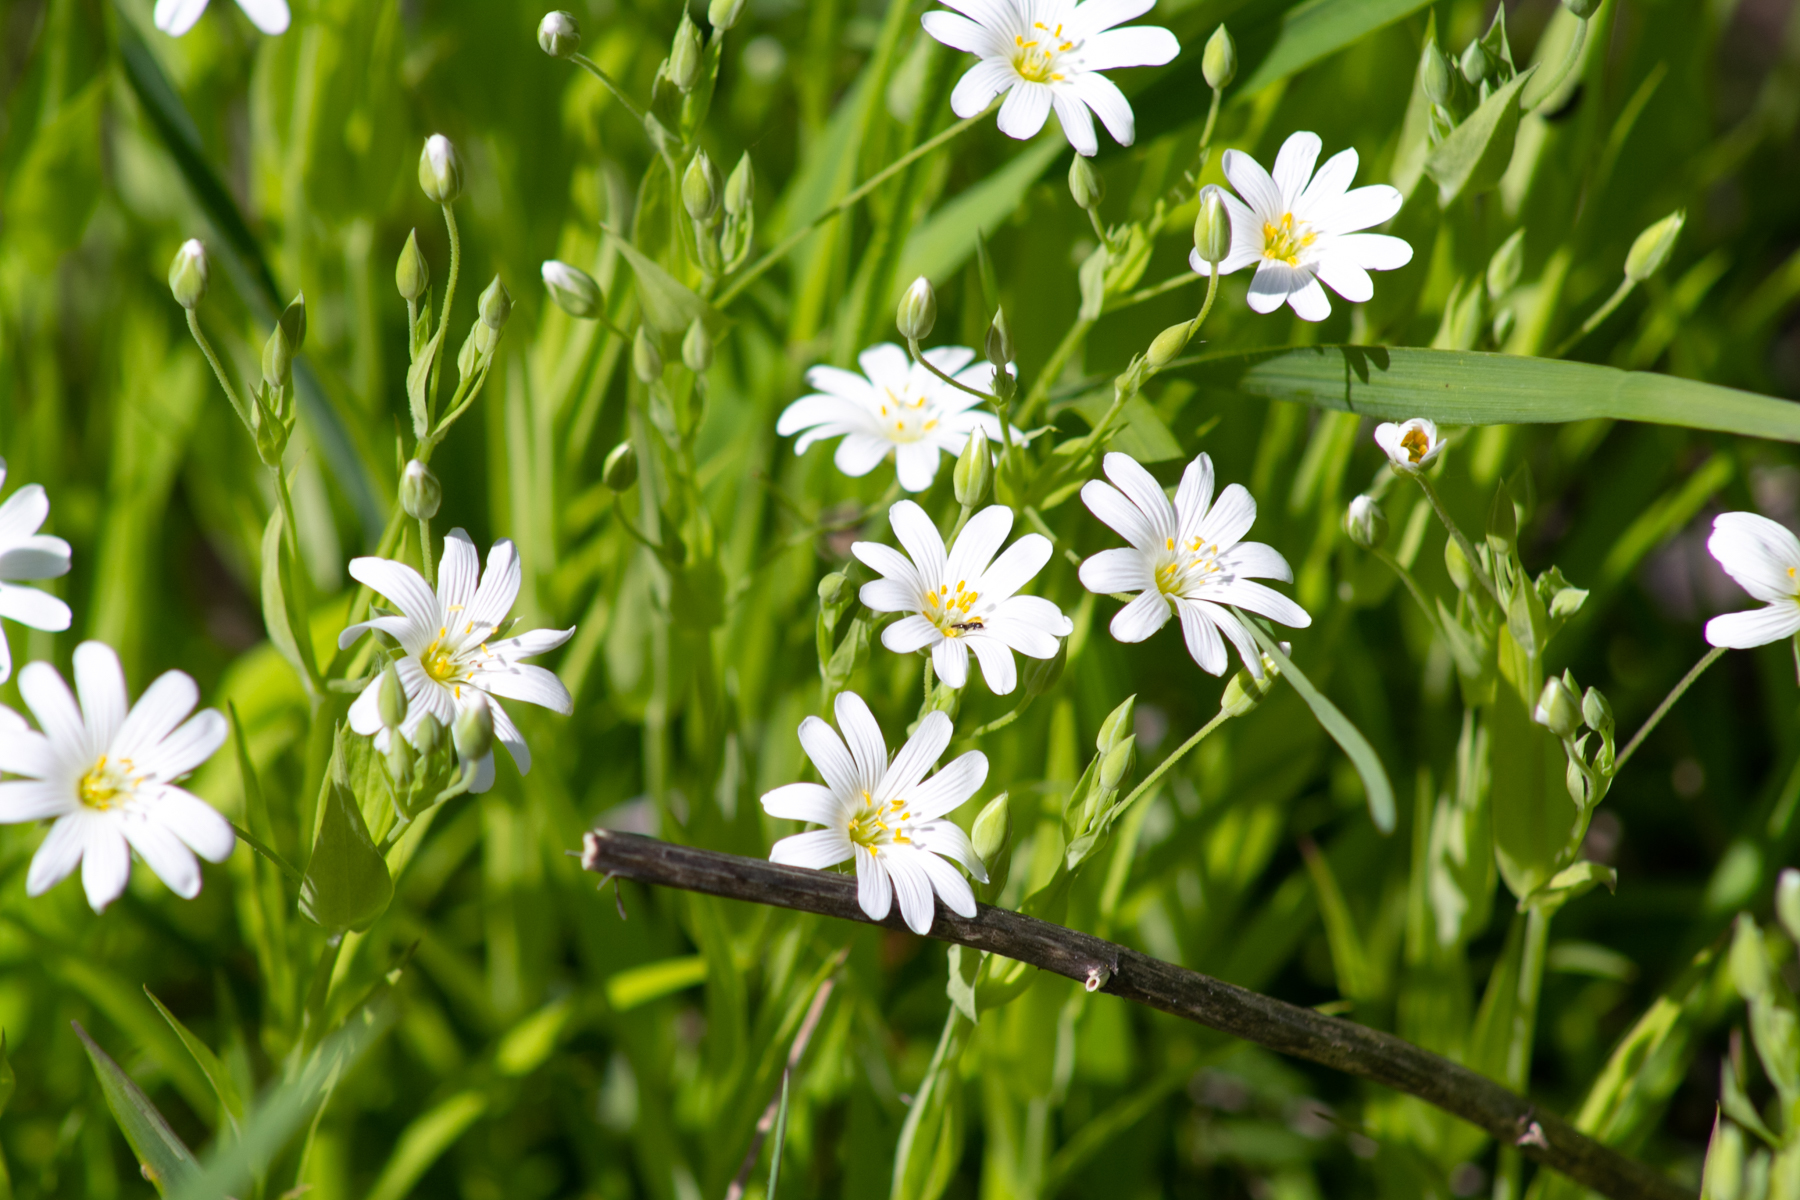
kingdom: Plantae
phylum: Tracheophyta
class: Magnoliopsida
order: Caryophyllales
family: Caryophyllaceae
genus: Rabelera
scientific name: Rabelera holostea
